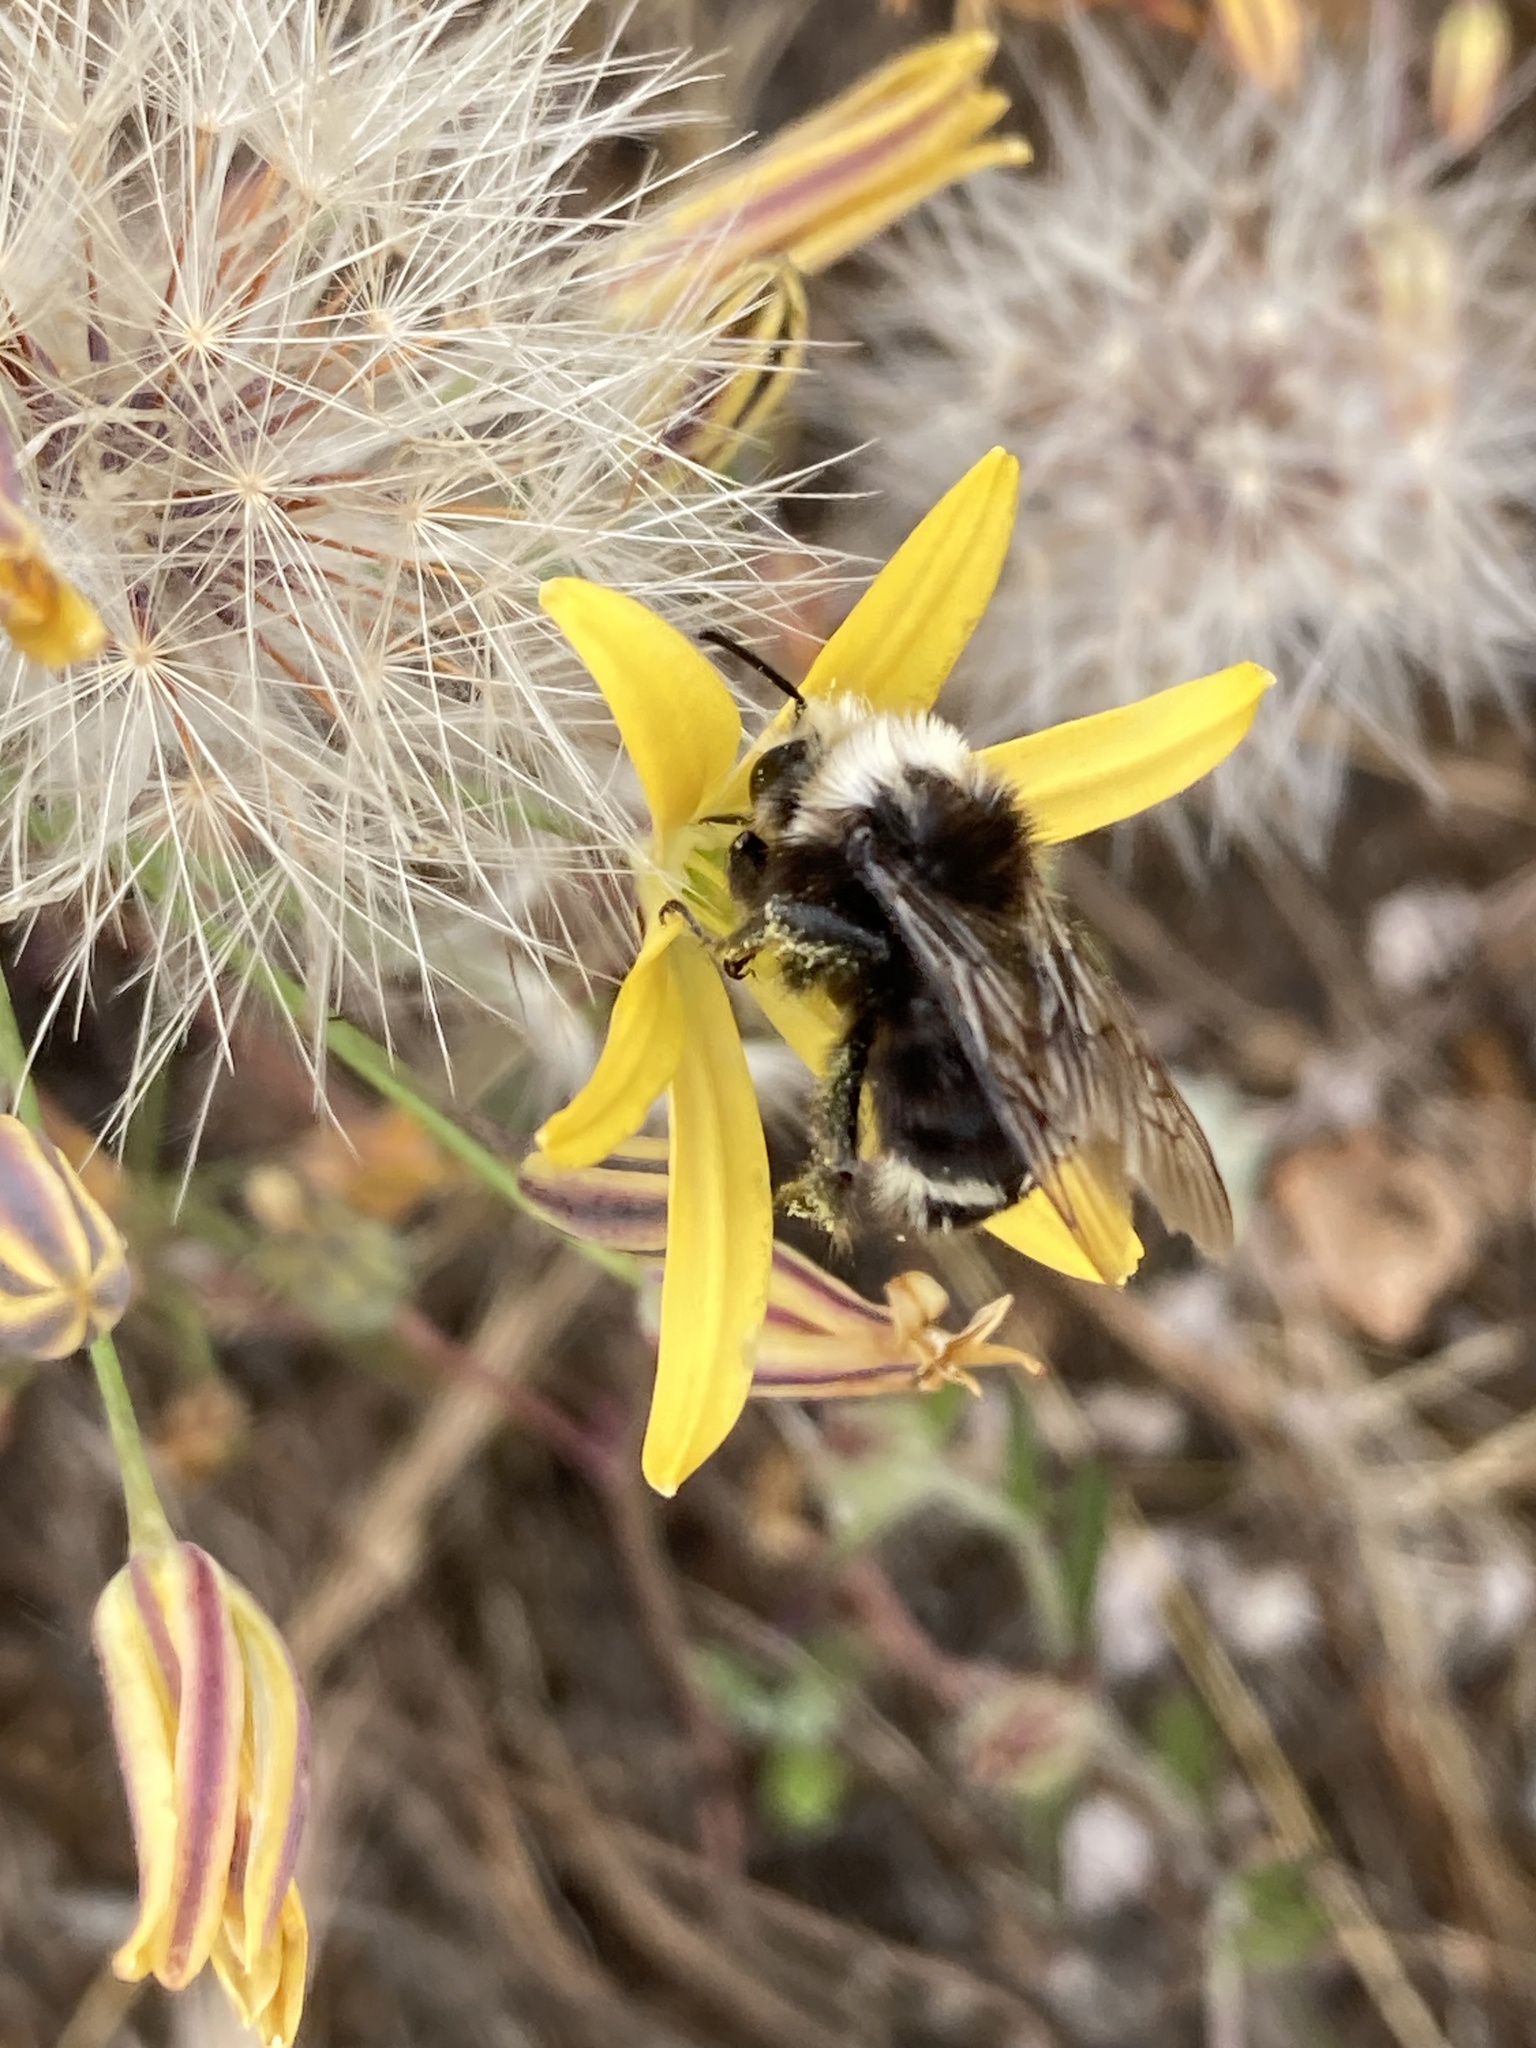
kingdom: Animalia
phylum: Arthropoda
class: Insecta
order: Hymenoptera
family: Apidae
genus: Bombus
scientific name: Bombus vosnesenskii
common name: Vosnesensky bumble bee
